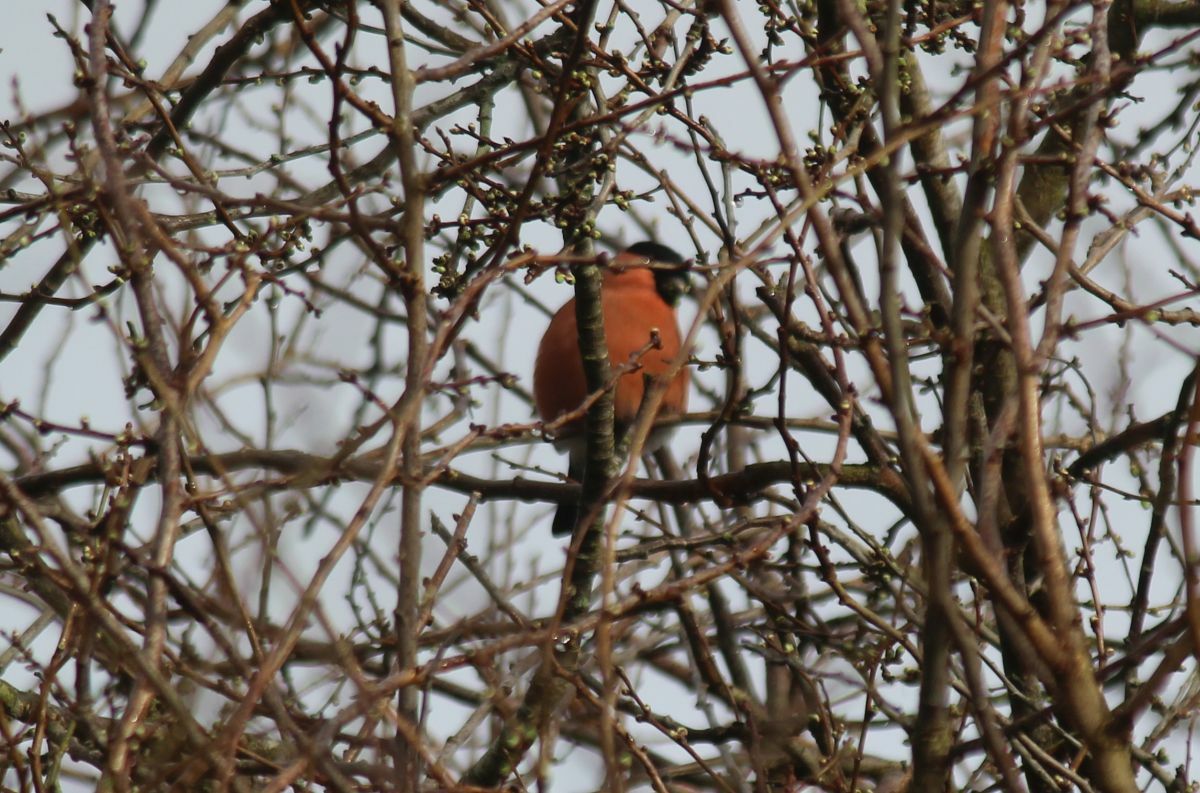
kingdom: Animalia
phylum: Chordata
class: Aves
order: Passeriformes
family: Fringillidae
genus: Pyrrhula
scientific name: Pyrrhula pyrrhula
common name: Eurasian bullfinch
